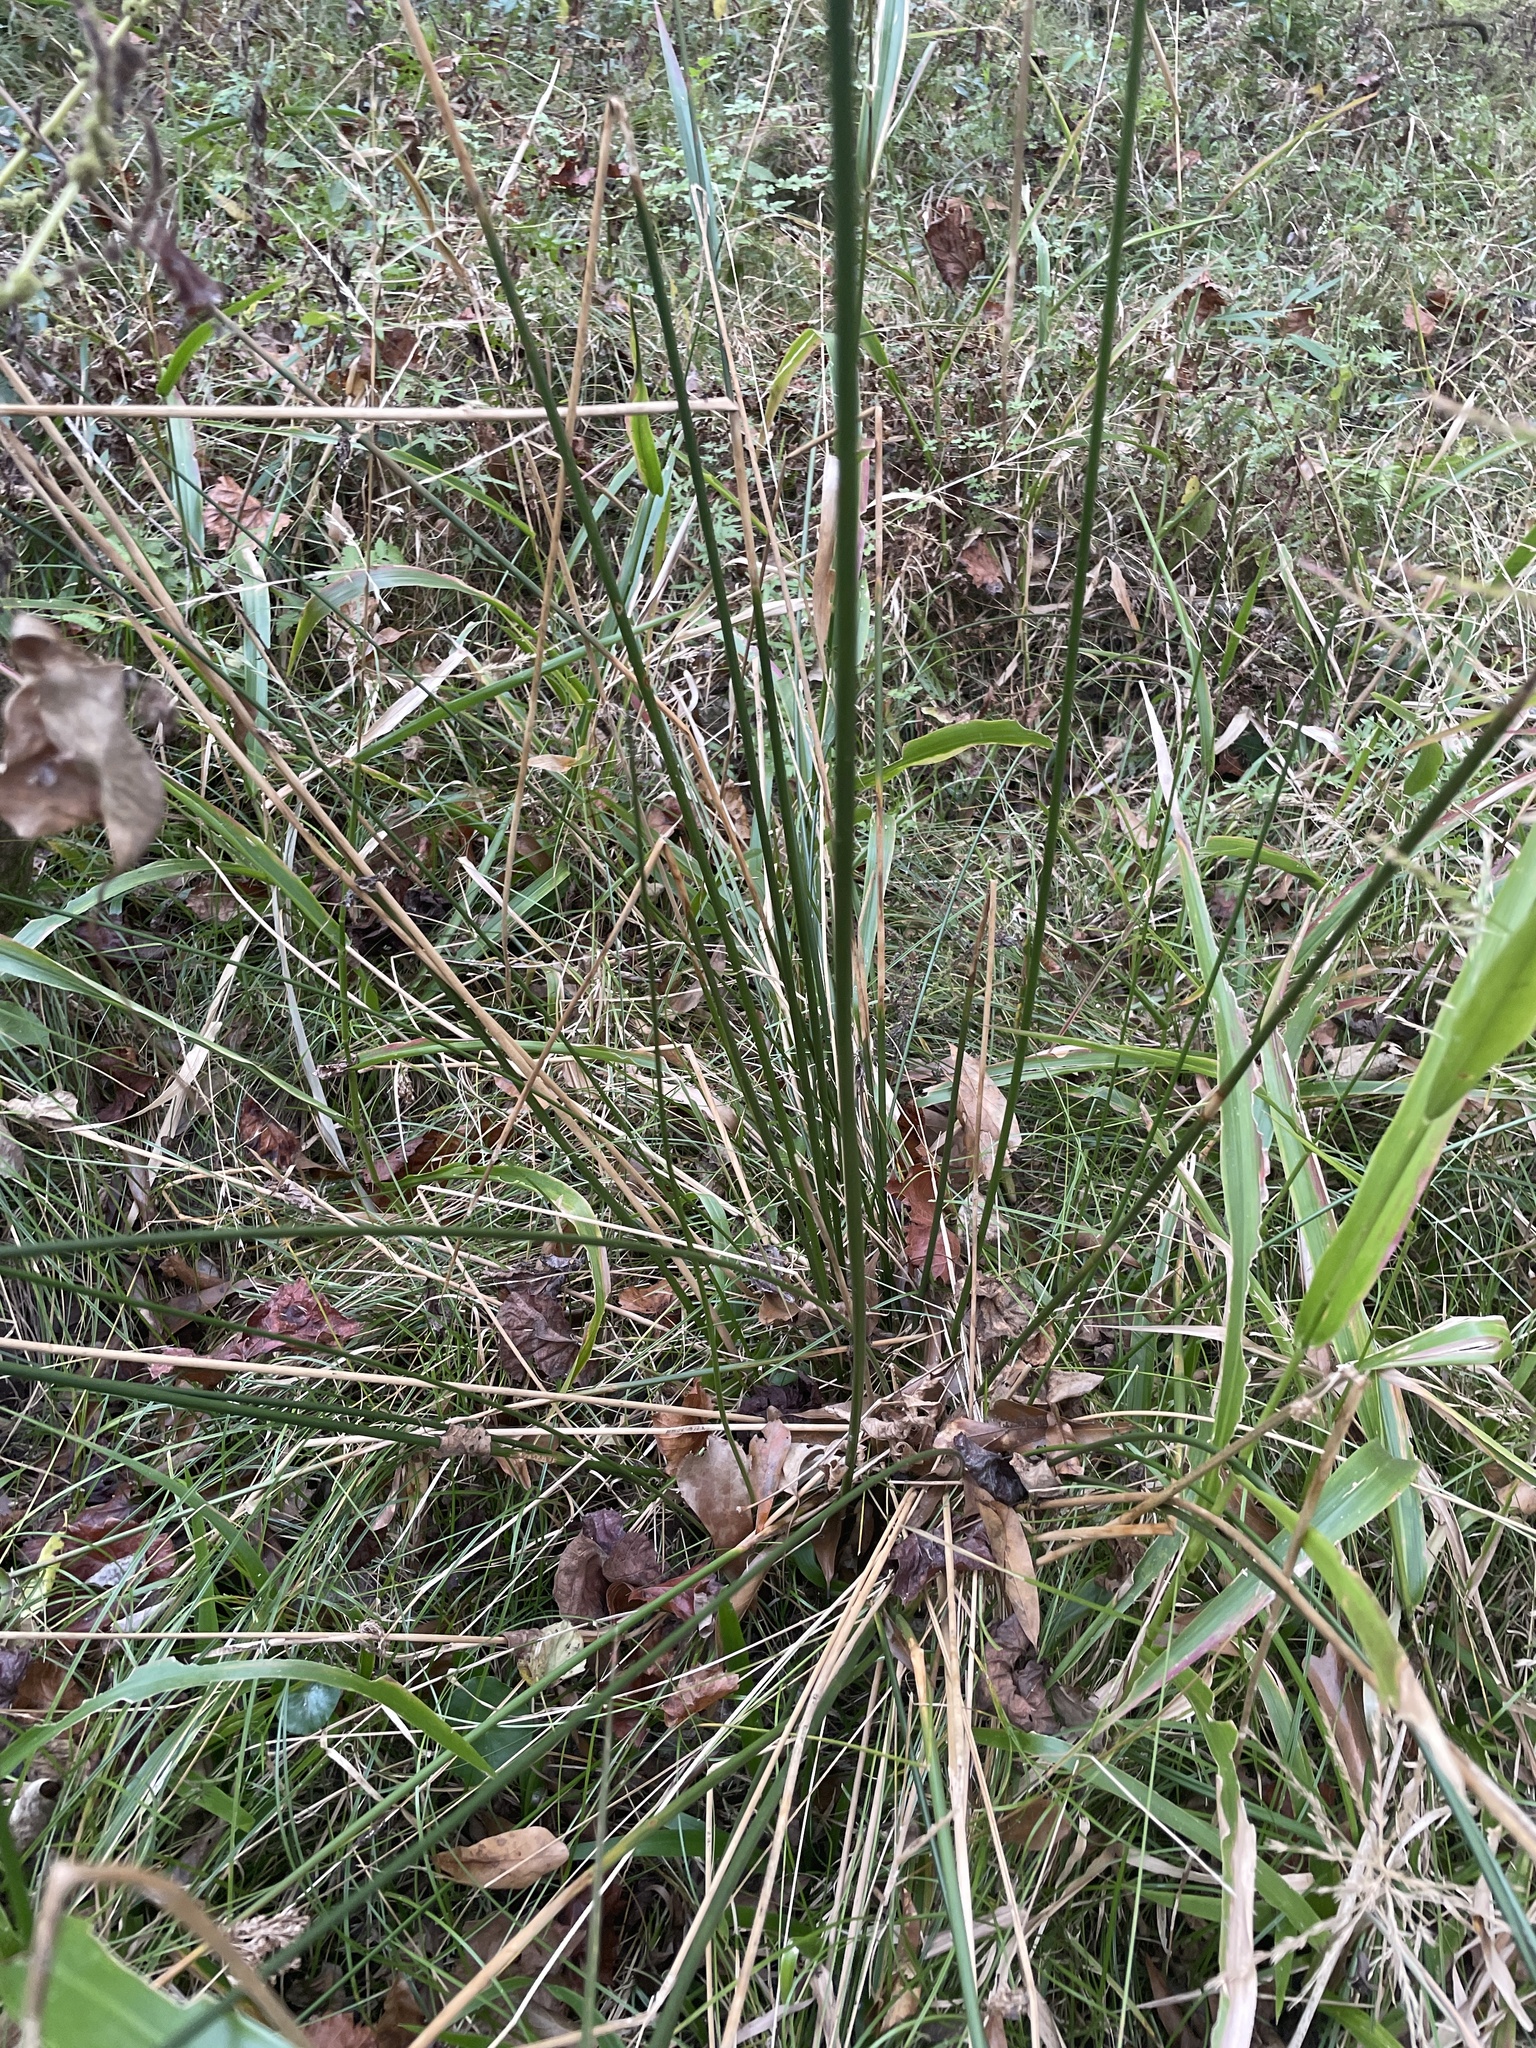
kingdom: Plantae
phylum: Tracheophyta
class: Liliopsida
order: Poales
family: Juncaceae
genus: Juncus
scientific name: Juncus effusus
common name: Soft rush
